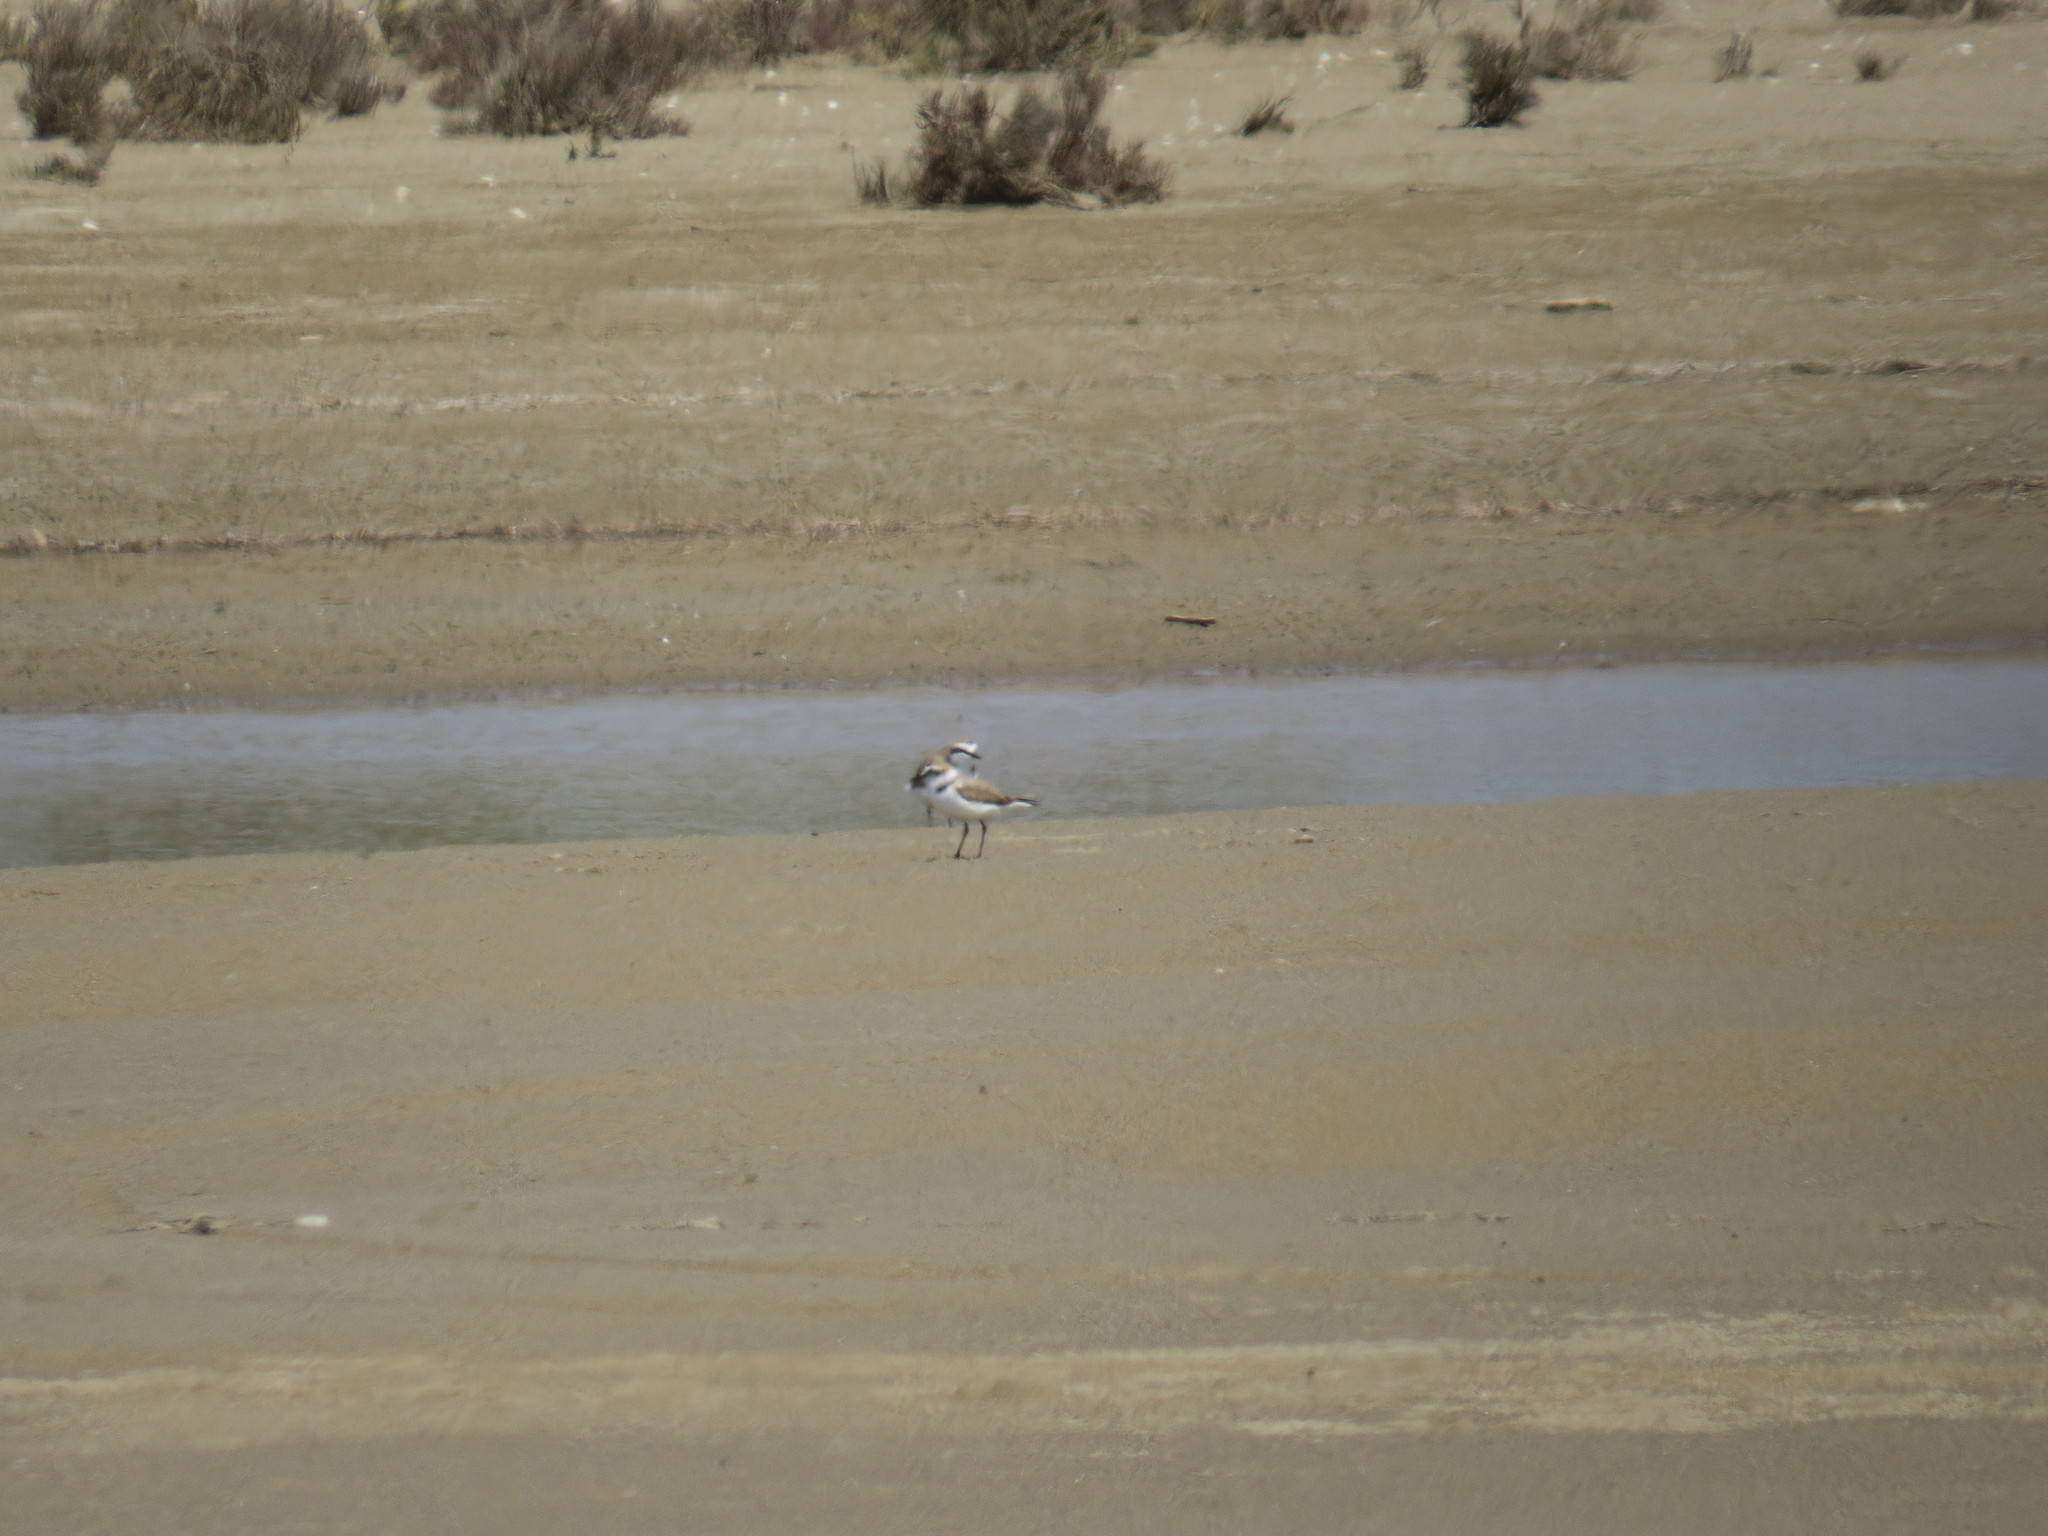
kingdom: Animalia
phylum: Chordata
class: Aves
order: Charadriiformes
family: Charadriidae
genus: Charadrius
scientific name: Charadrius alexandrinus
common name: Kentish plover
